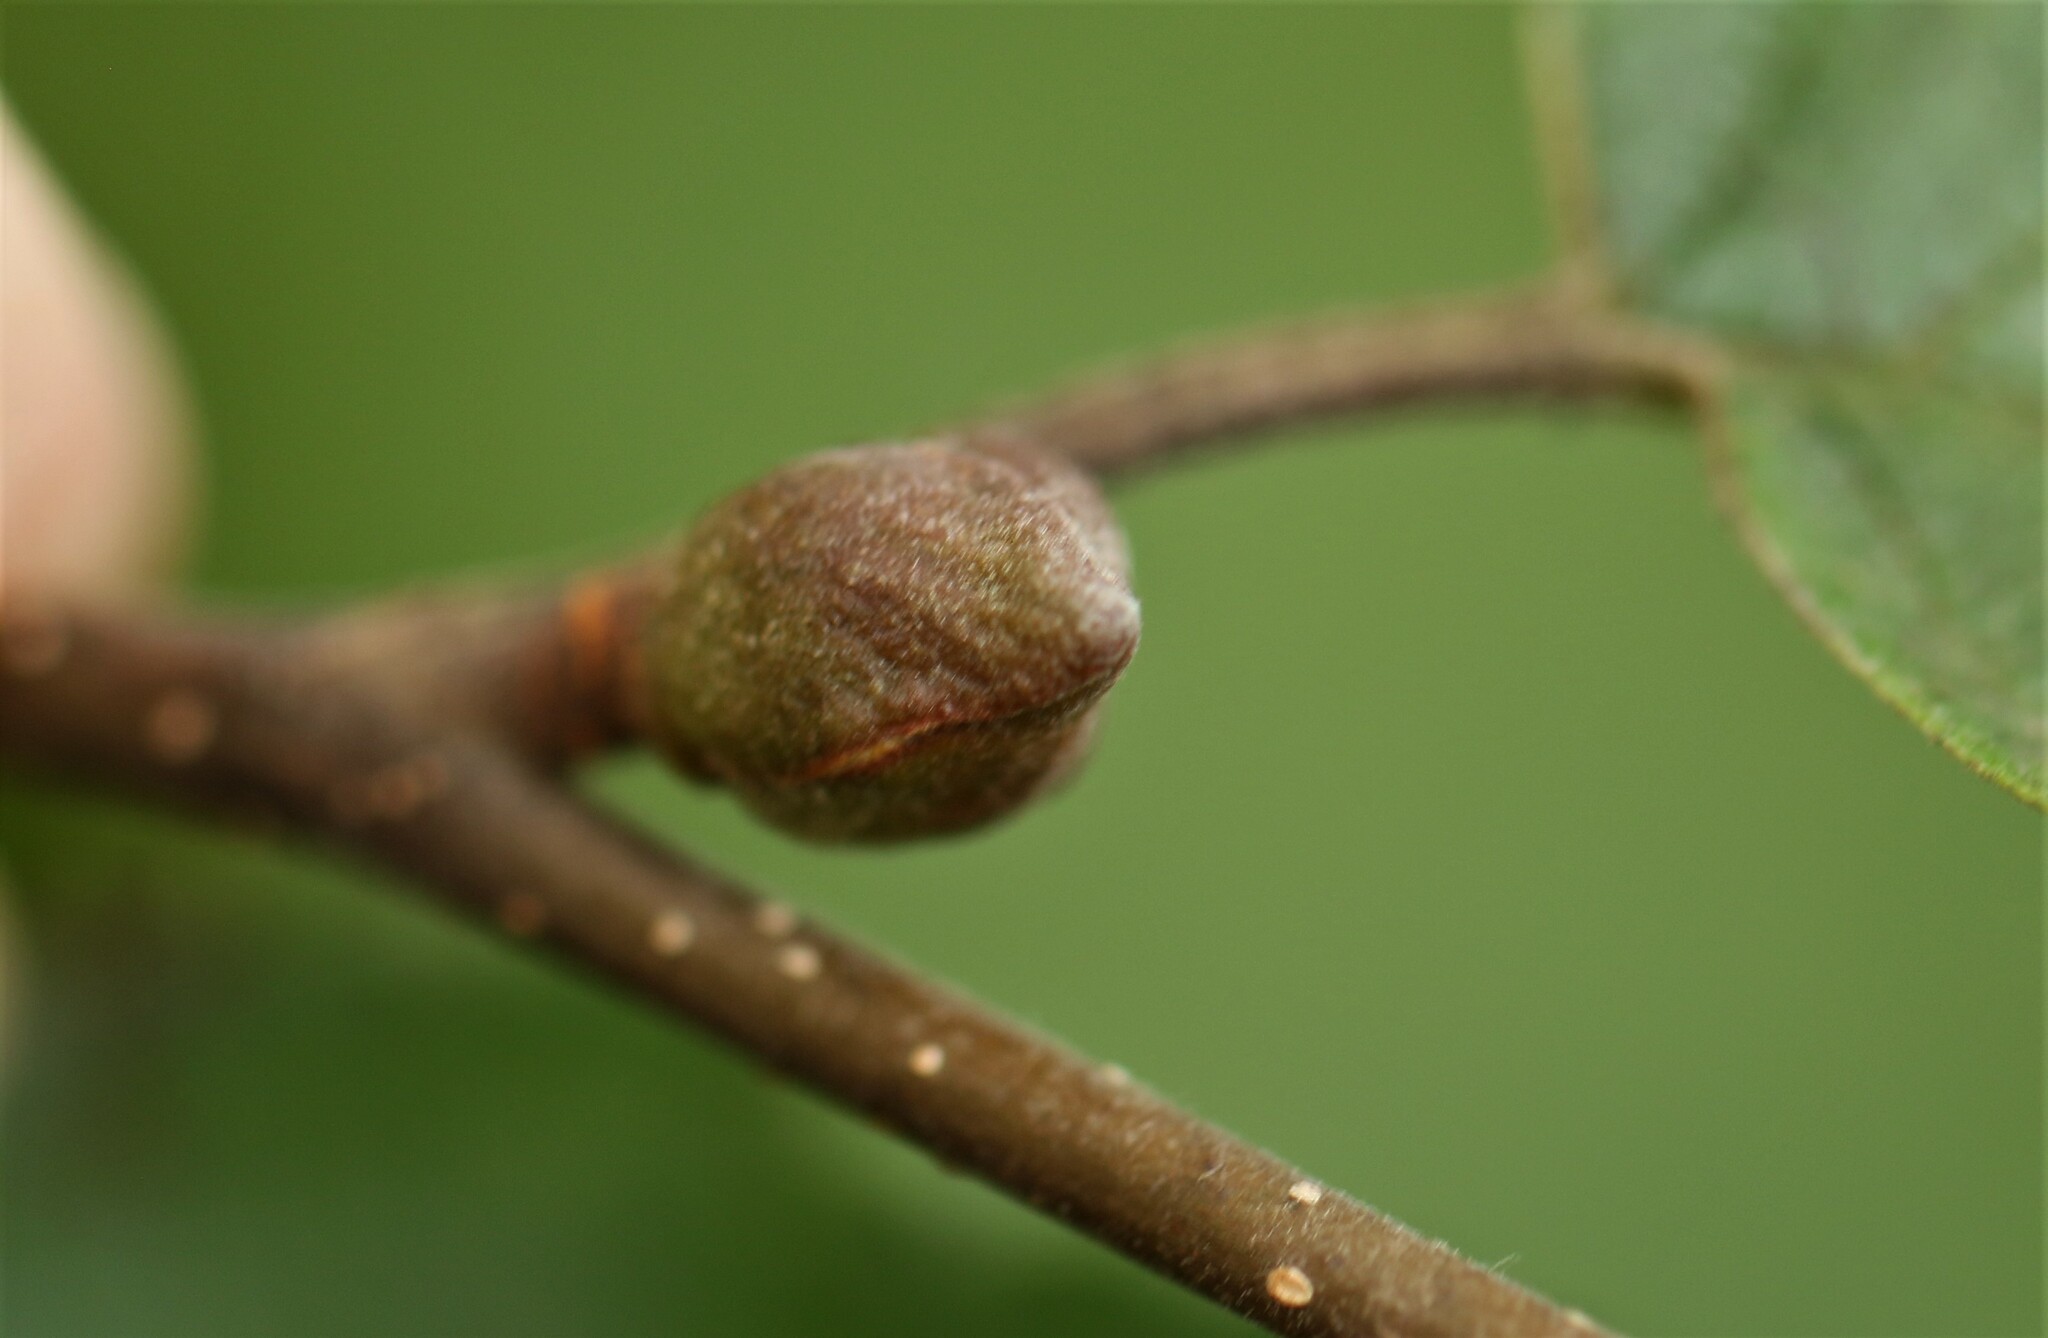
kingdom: Animalia
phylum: Arthropoda
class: Insecta
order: Diptera
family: Cecidomyiidae
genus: Dasineura
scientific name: Dasineura serrulatae
